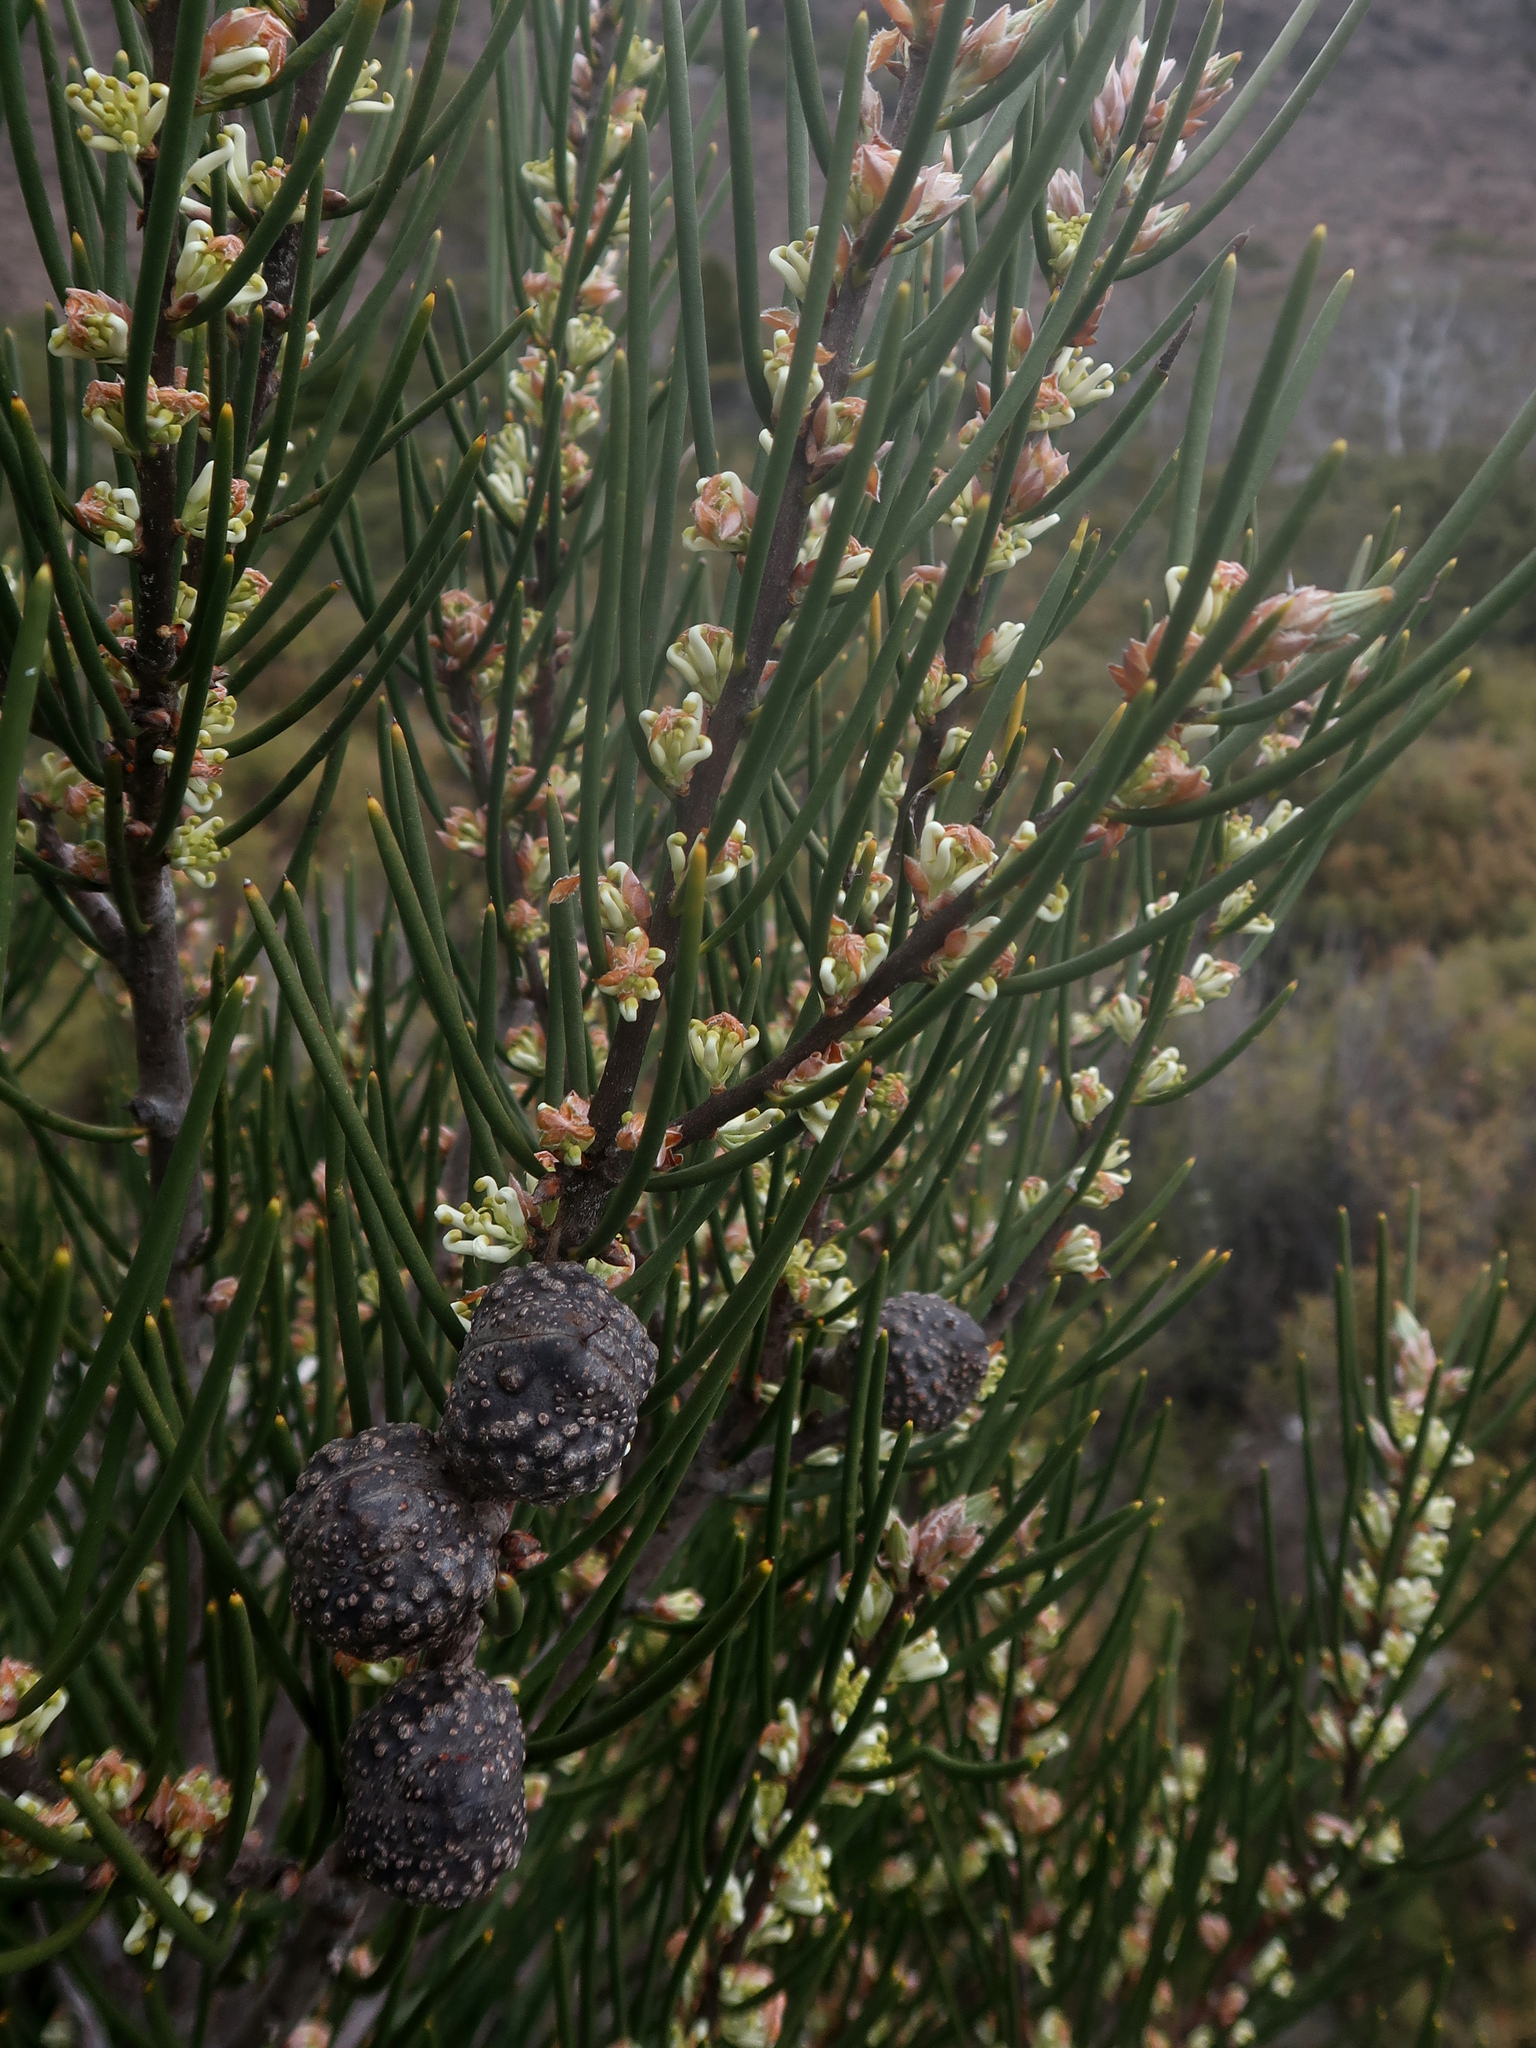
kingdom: Plantae
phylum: Tracheophyta
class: Magnoliopsida
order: Proteales
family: Proteaceae
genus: Hakea
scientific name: Hakea lissosperma
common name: Mountain needlewood
